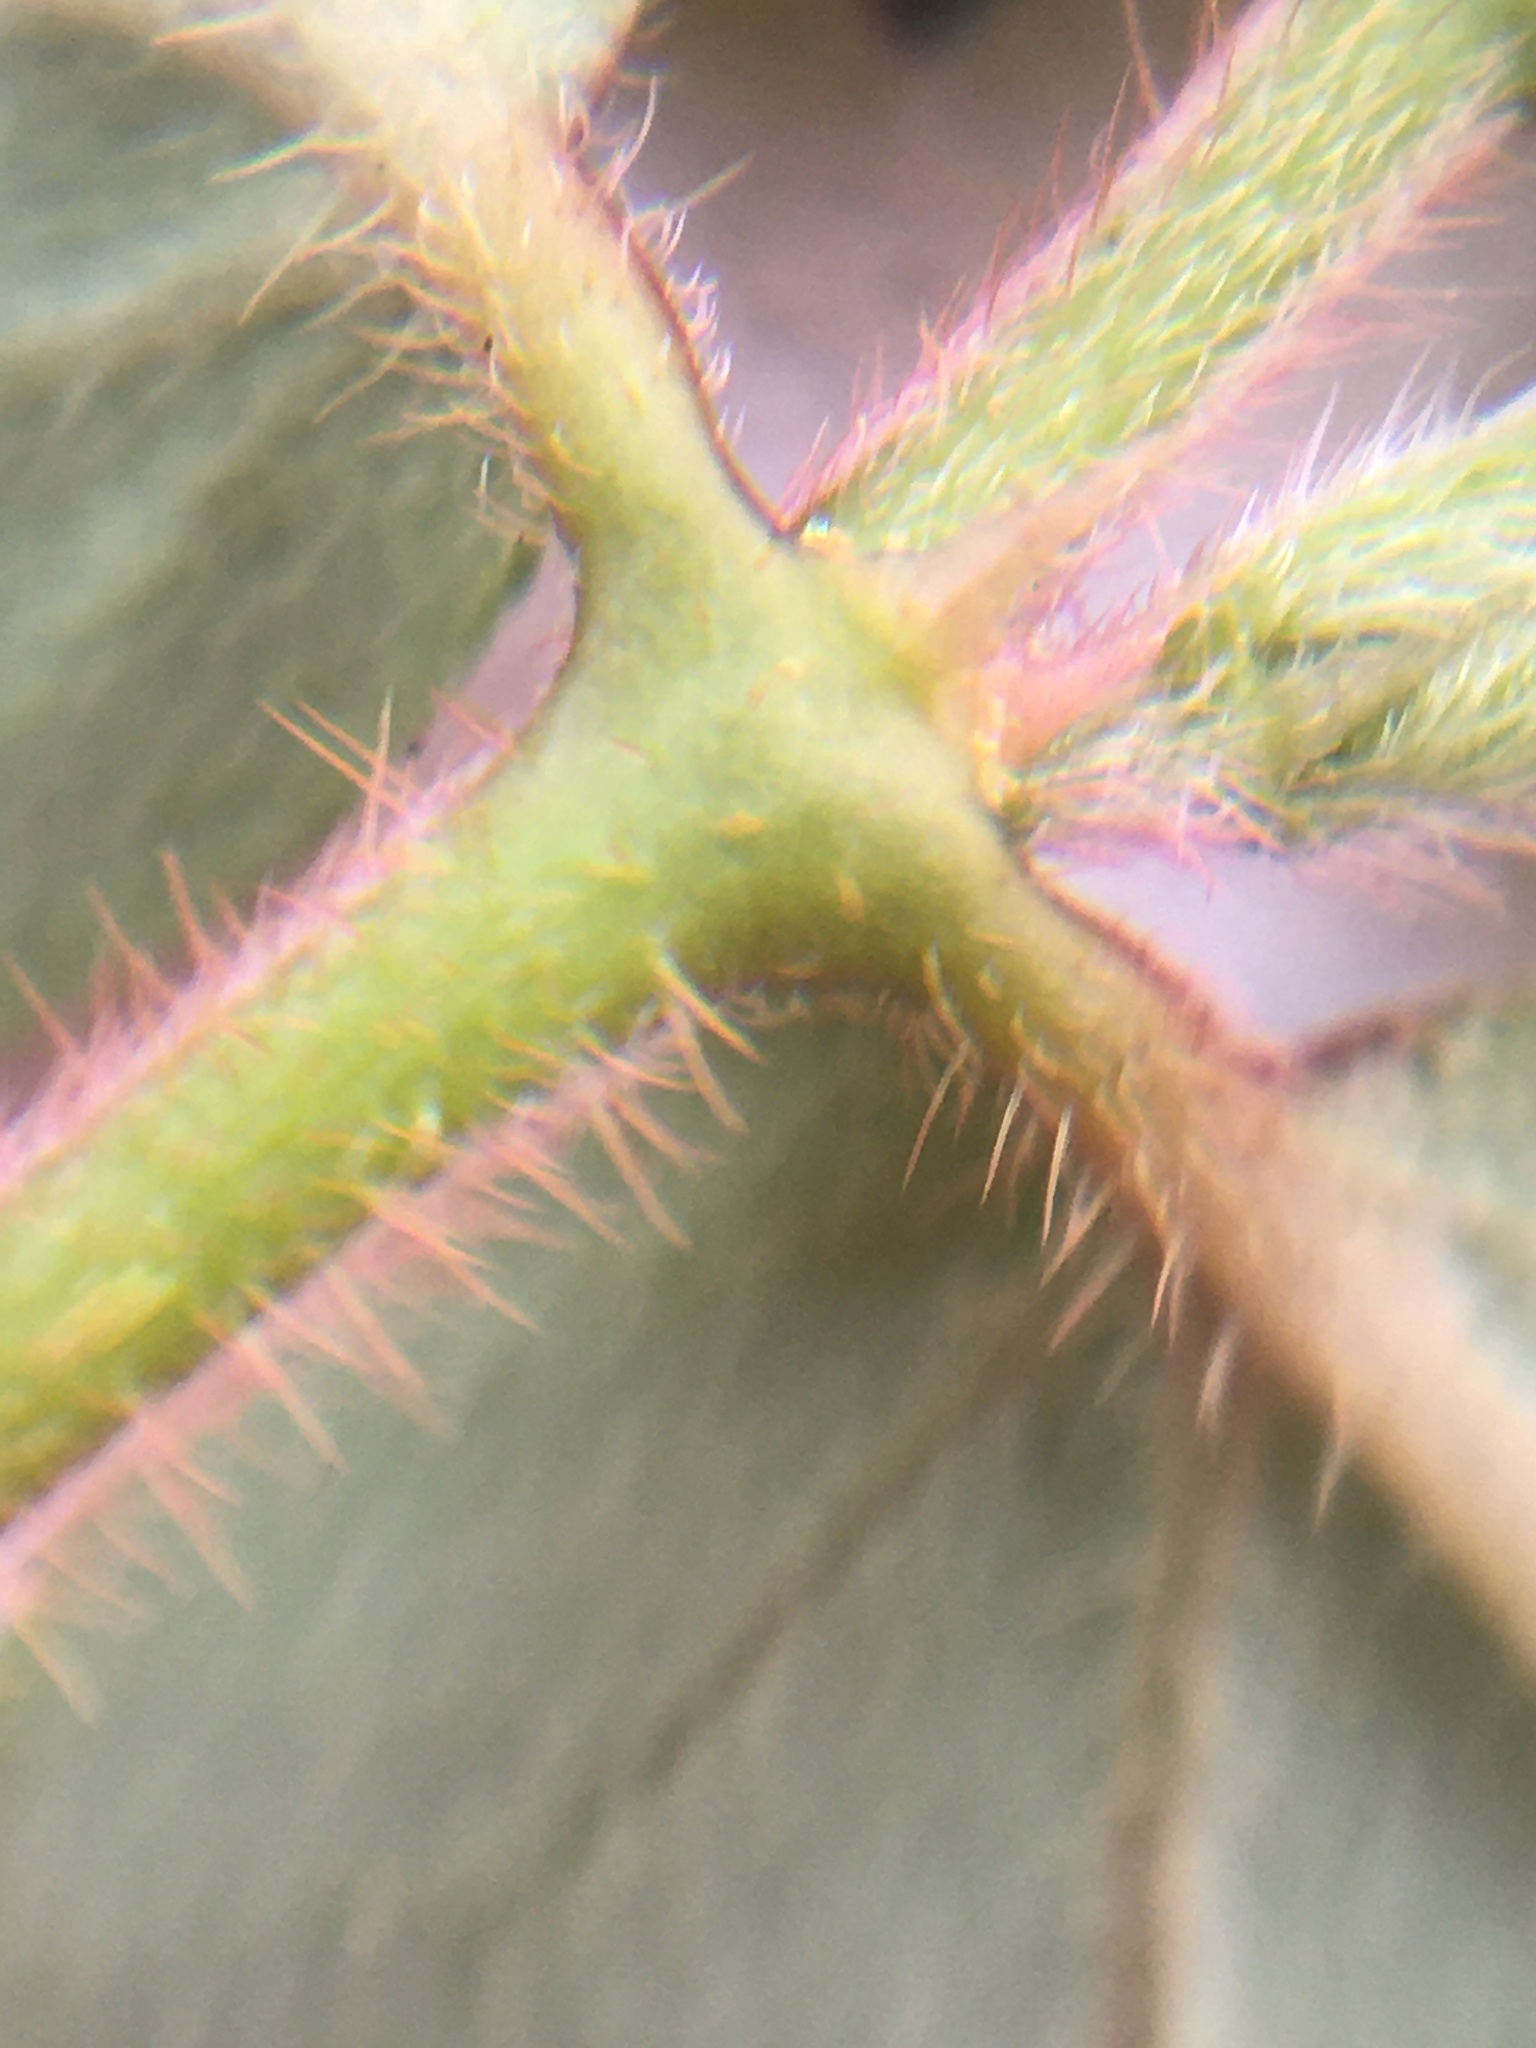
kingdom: Plantae
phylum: Tracheophyta
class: Magnoliopsida
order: Malpighiales
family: Euphorbiaceae
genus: Euphorbia
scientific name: Euphorbia ophthalmica
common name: Florida hammock sandmat
